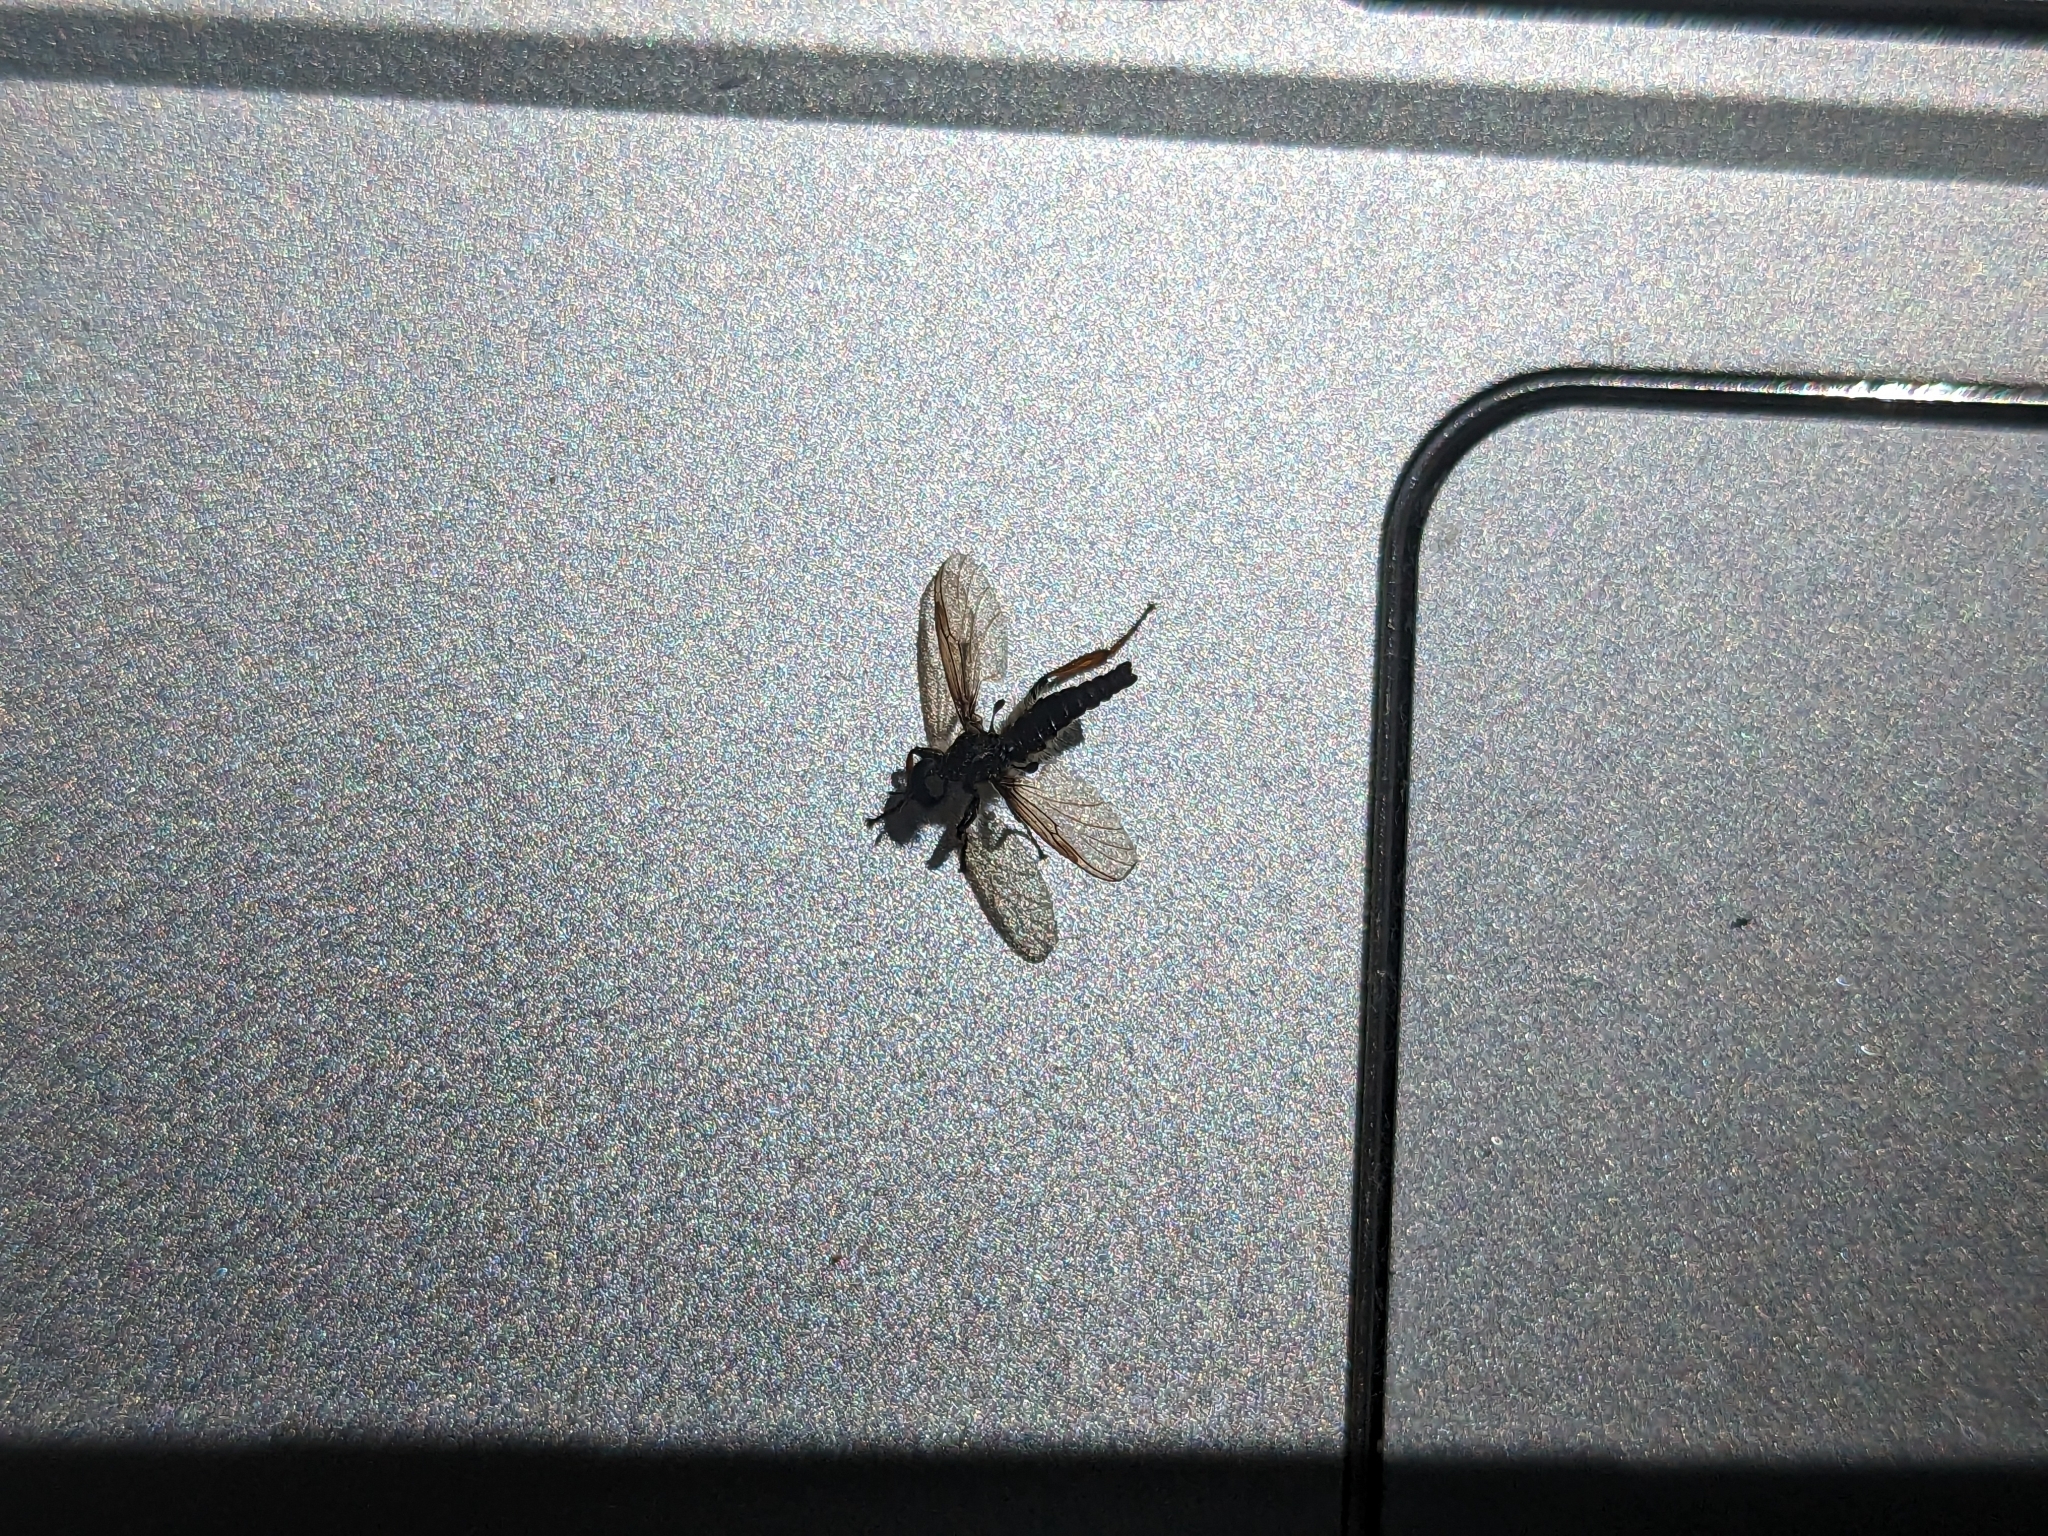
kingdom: Animalia
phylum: Arthropoda
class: Insecta
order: Diptera
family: Bibionidae
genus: Bibio
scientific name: Bibio lanigerus
